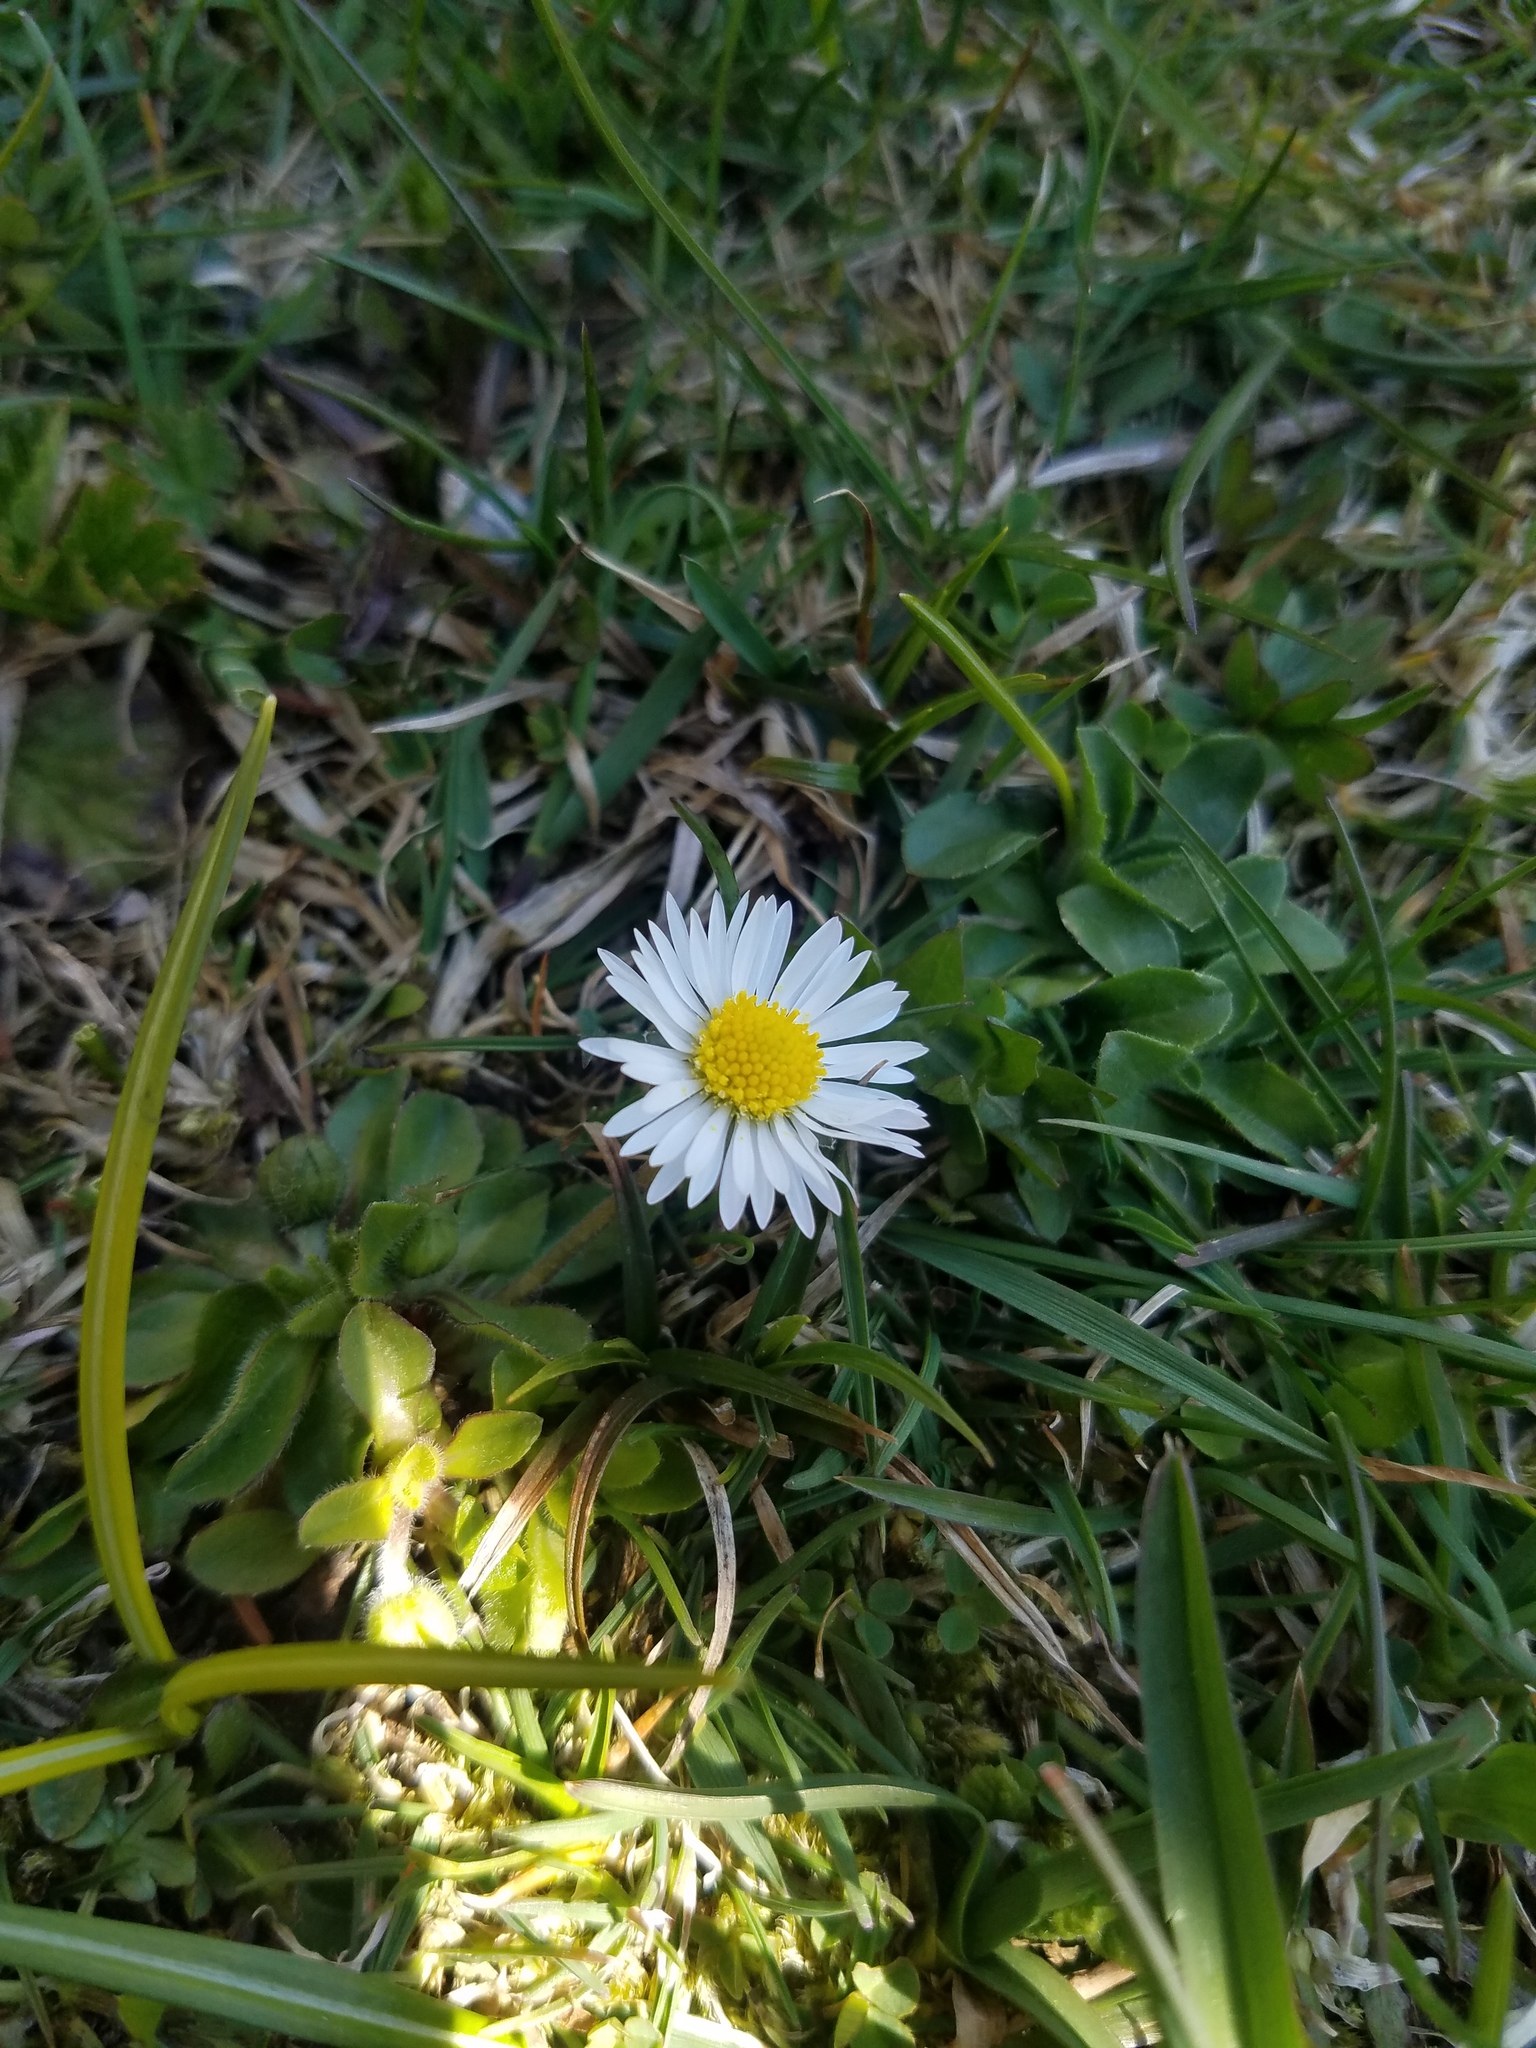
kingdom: Plantae
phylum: Tracheophyta
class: Magnoliopsida
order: Asterales
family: Asteraceae
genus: Bellis
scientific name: Bellis perennis
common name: Lawndaisy
